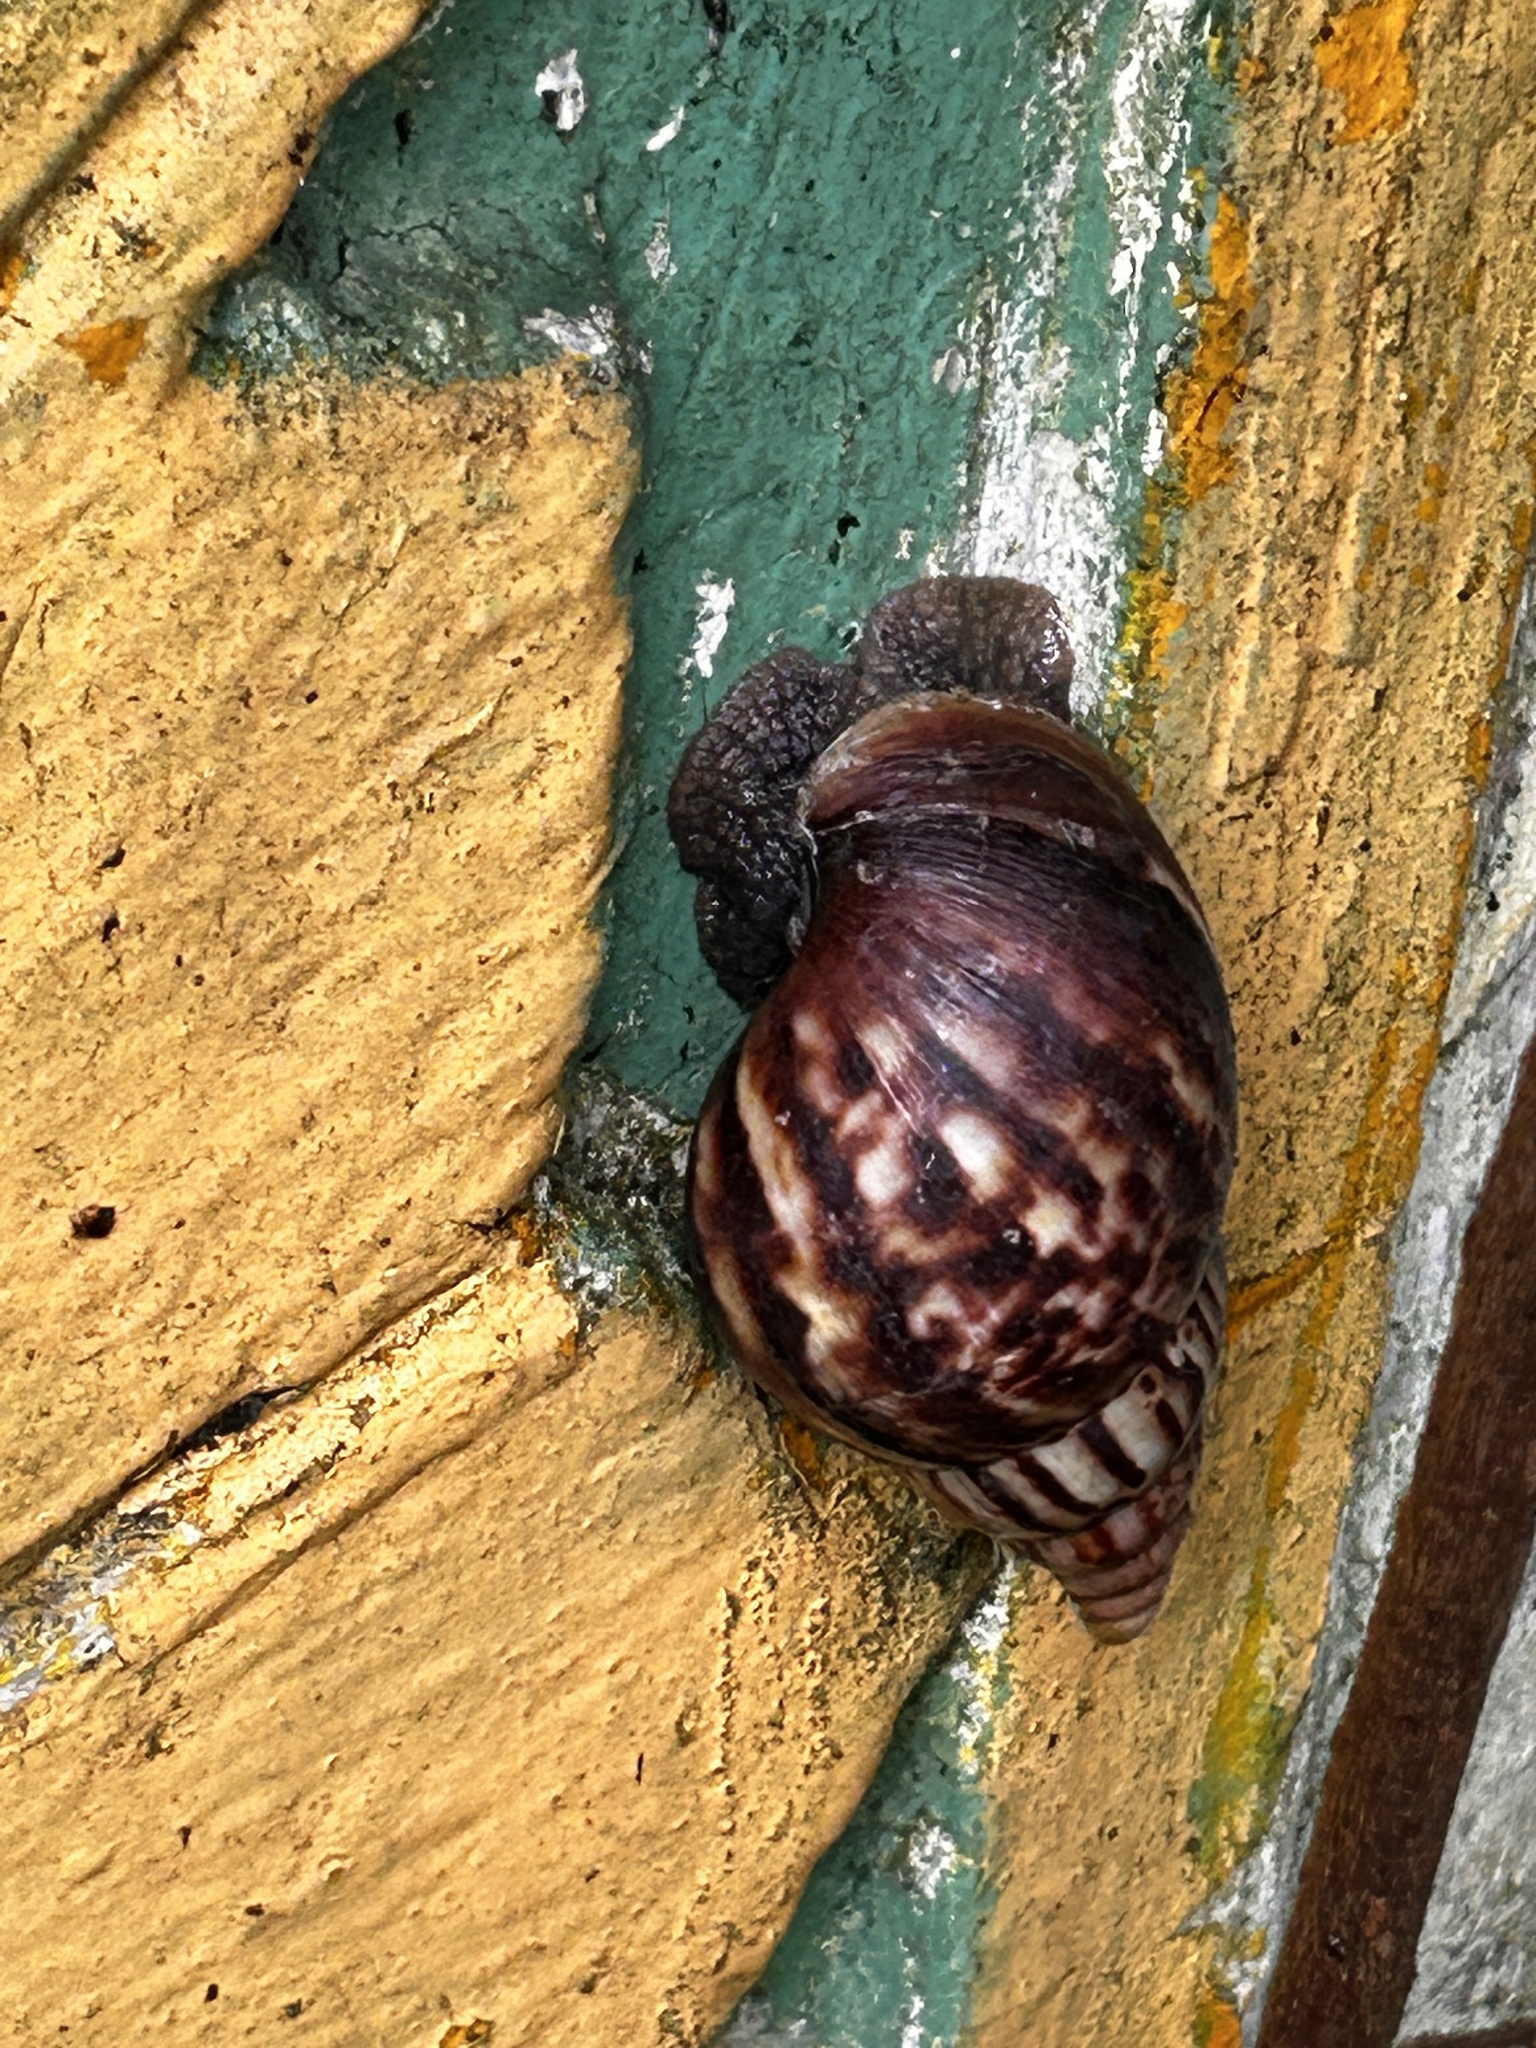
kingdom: Animalia
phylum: Mollusca
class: Gastropoda
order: Stylommatophora
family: Achatinidae
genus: Lissachatina
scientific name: Lissachatina fulica
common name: Giant african snail
